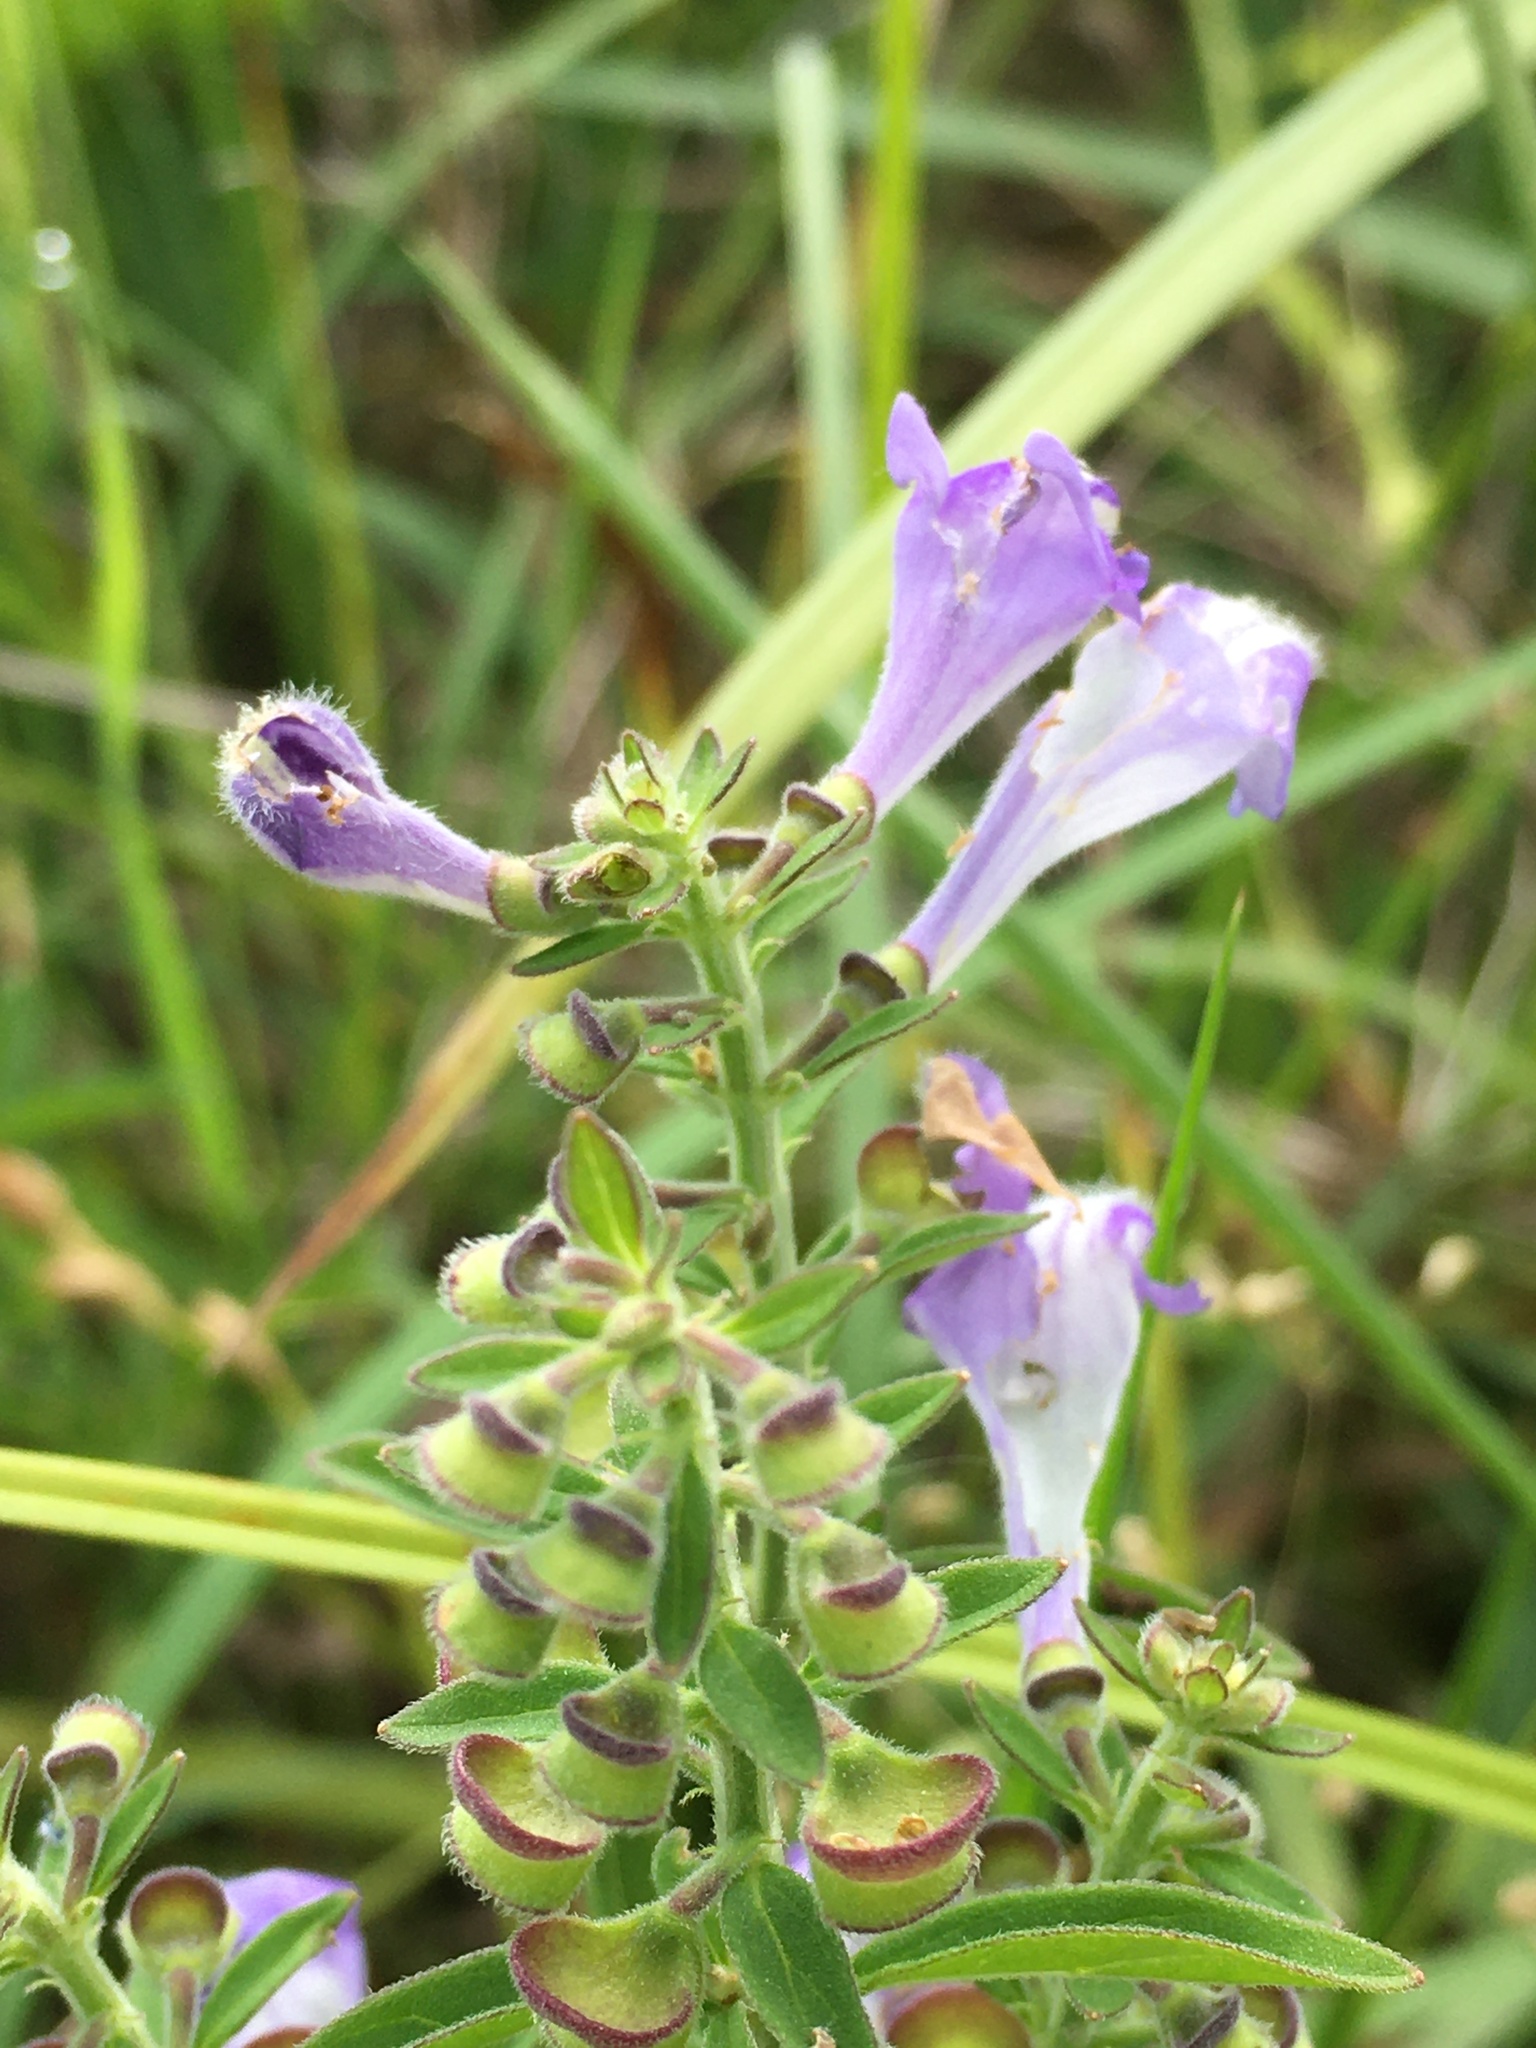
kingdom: Plantae
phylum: Tracheophyta
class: Magnoliopsida
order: Lamiales
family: Lamiaceae
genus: Scutellaria
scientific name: Scutellaria integrifolia
